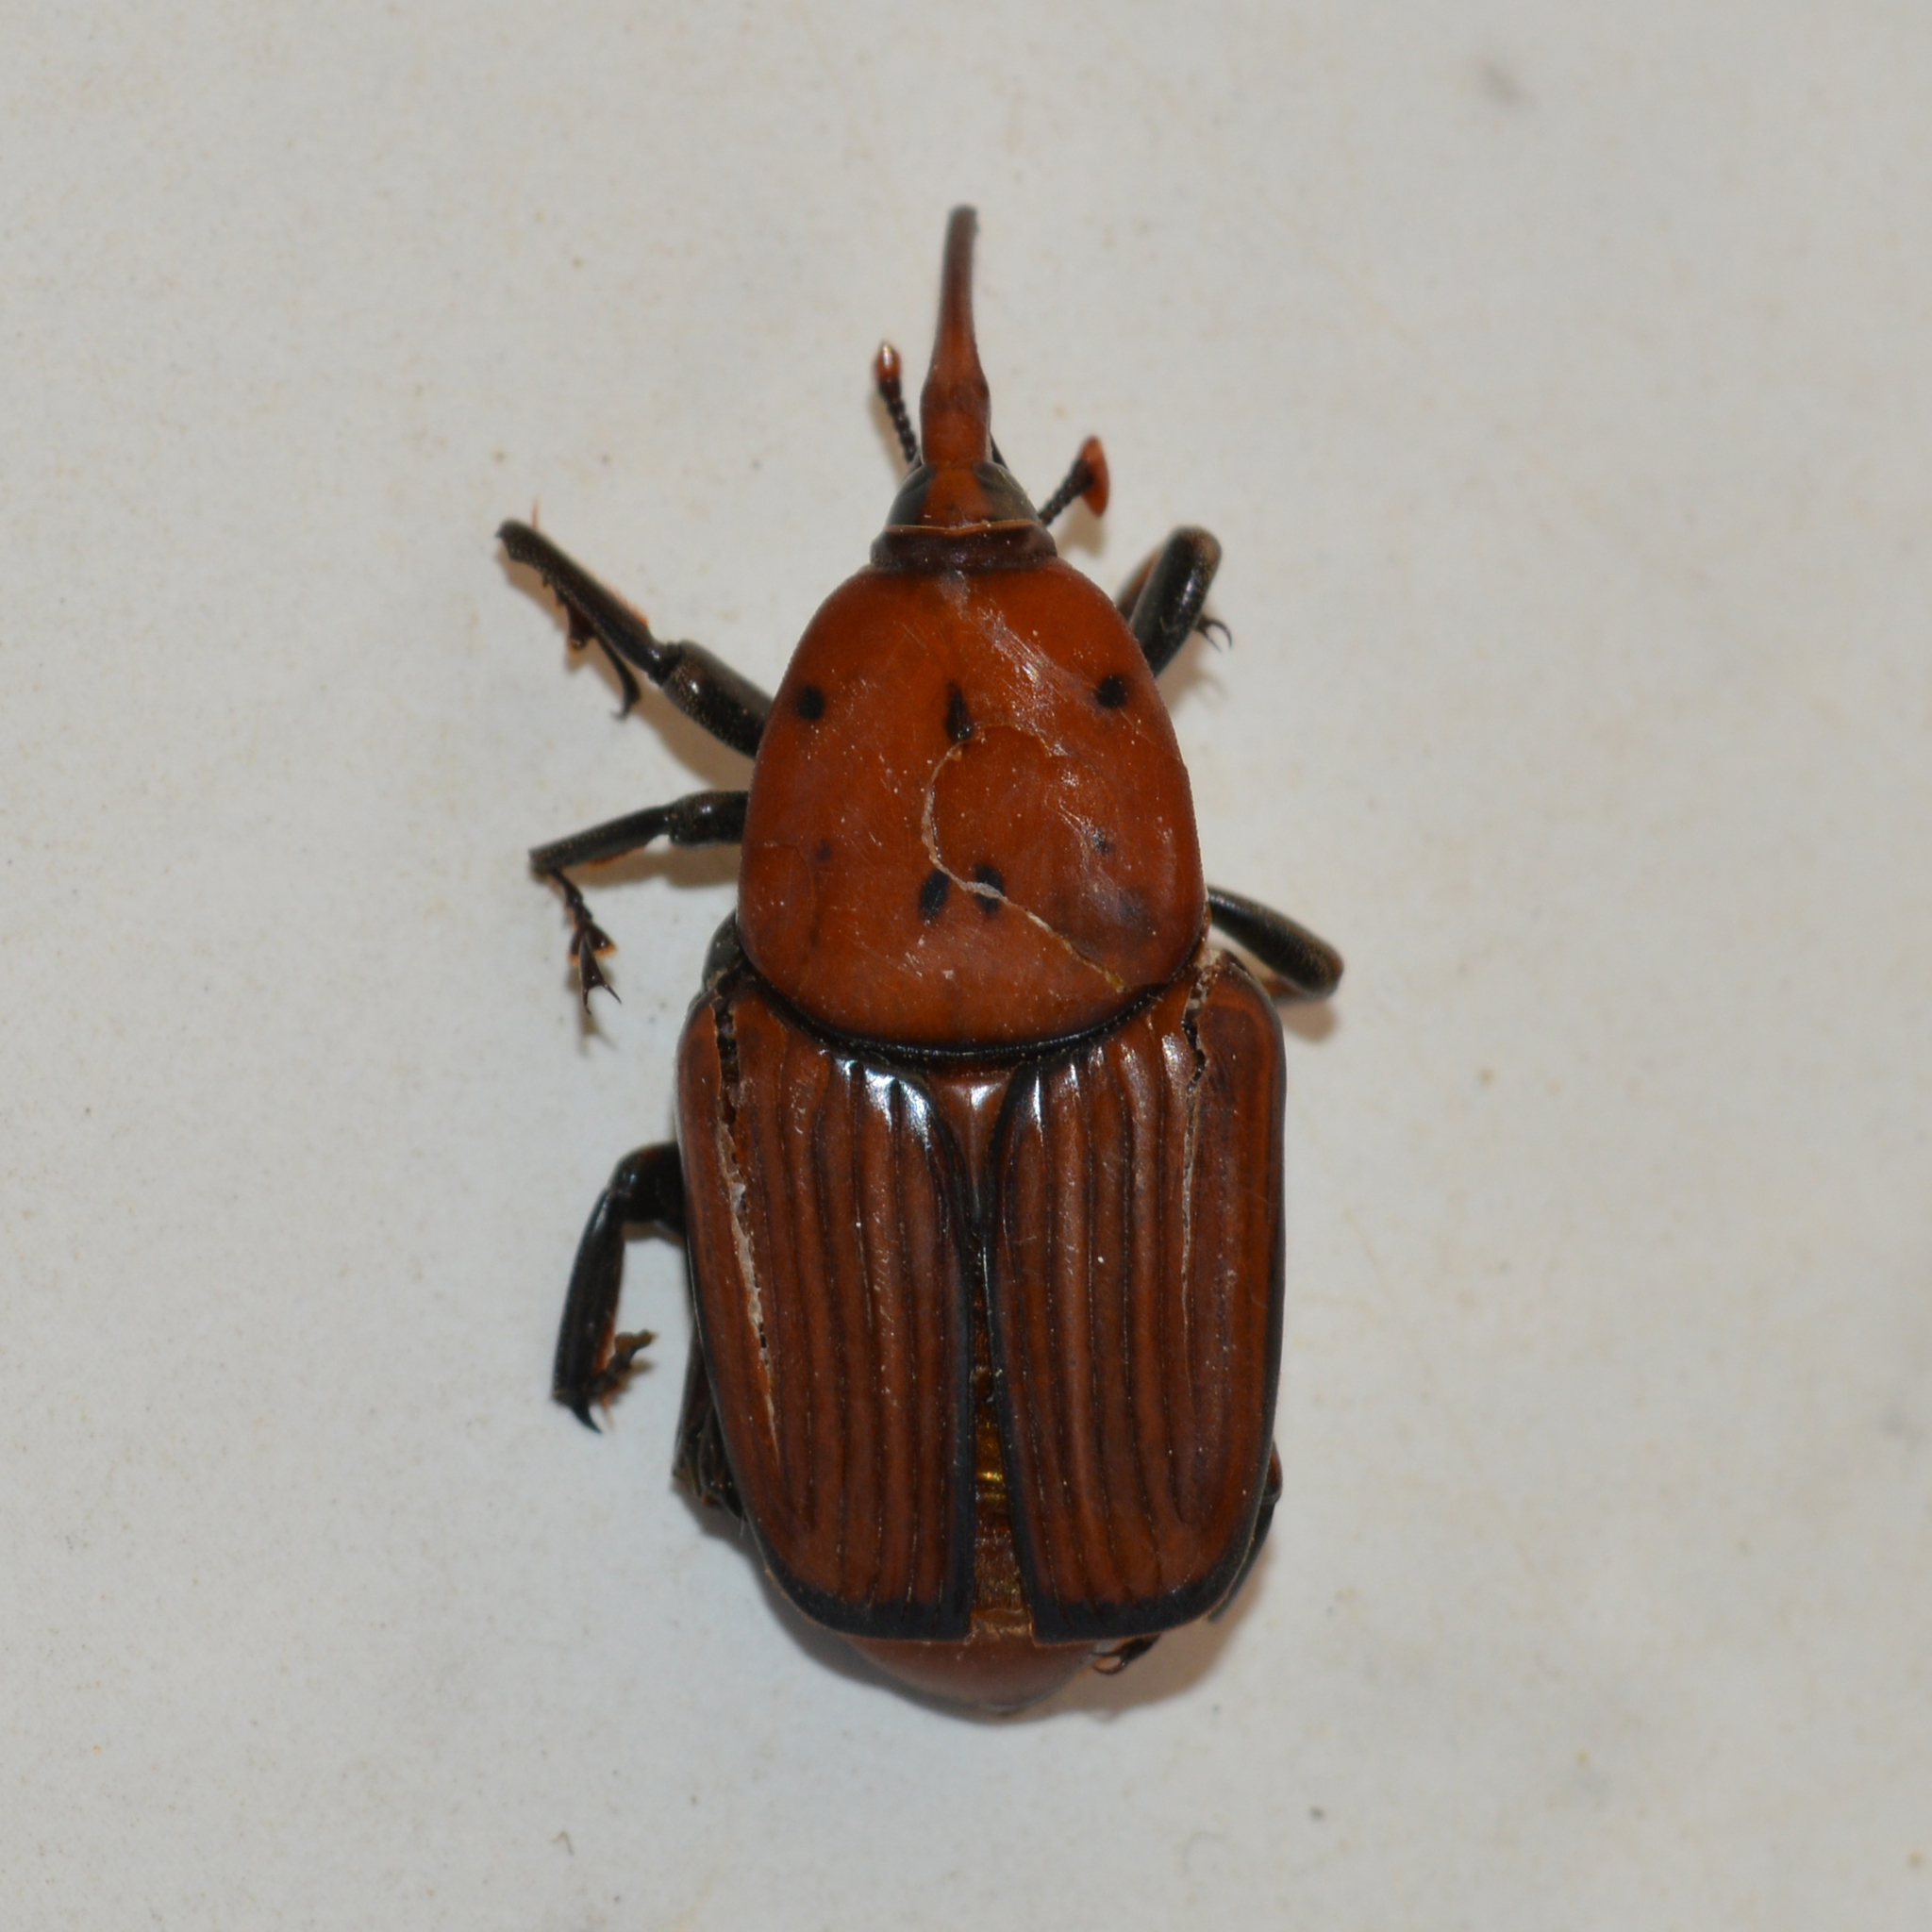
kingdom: Animalia
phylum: Arthropoda
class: Insecta
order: Coleoptera
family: Dryophthoridae
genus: Rhynchophorus
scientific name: Rhynchophorus ferrugineus
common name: Red palm weevil
